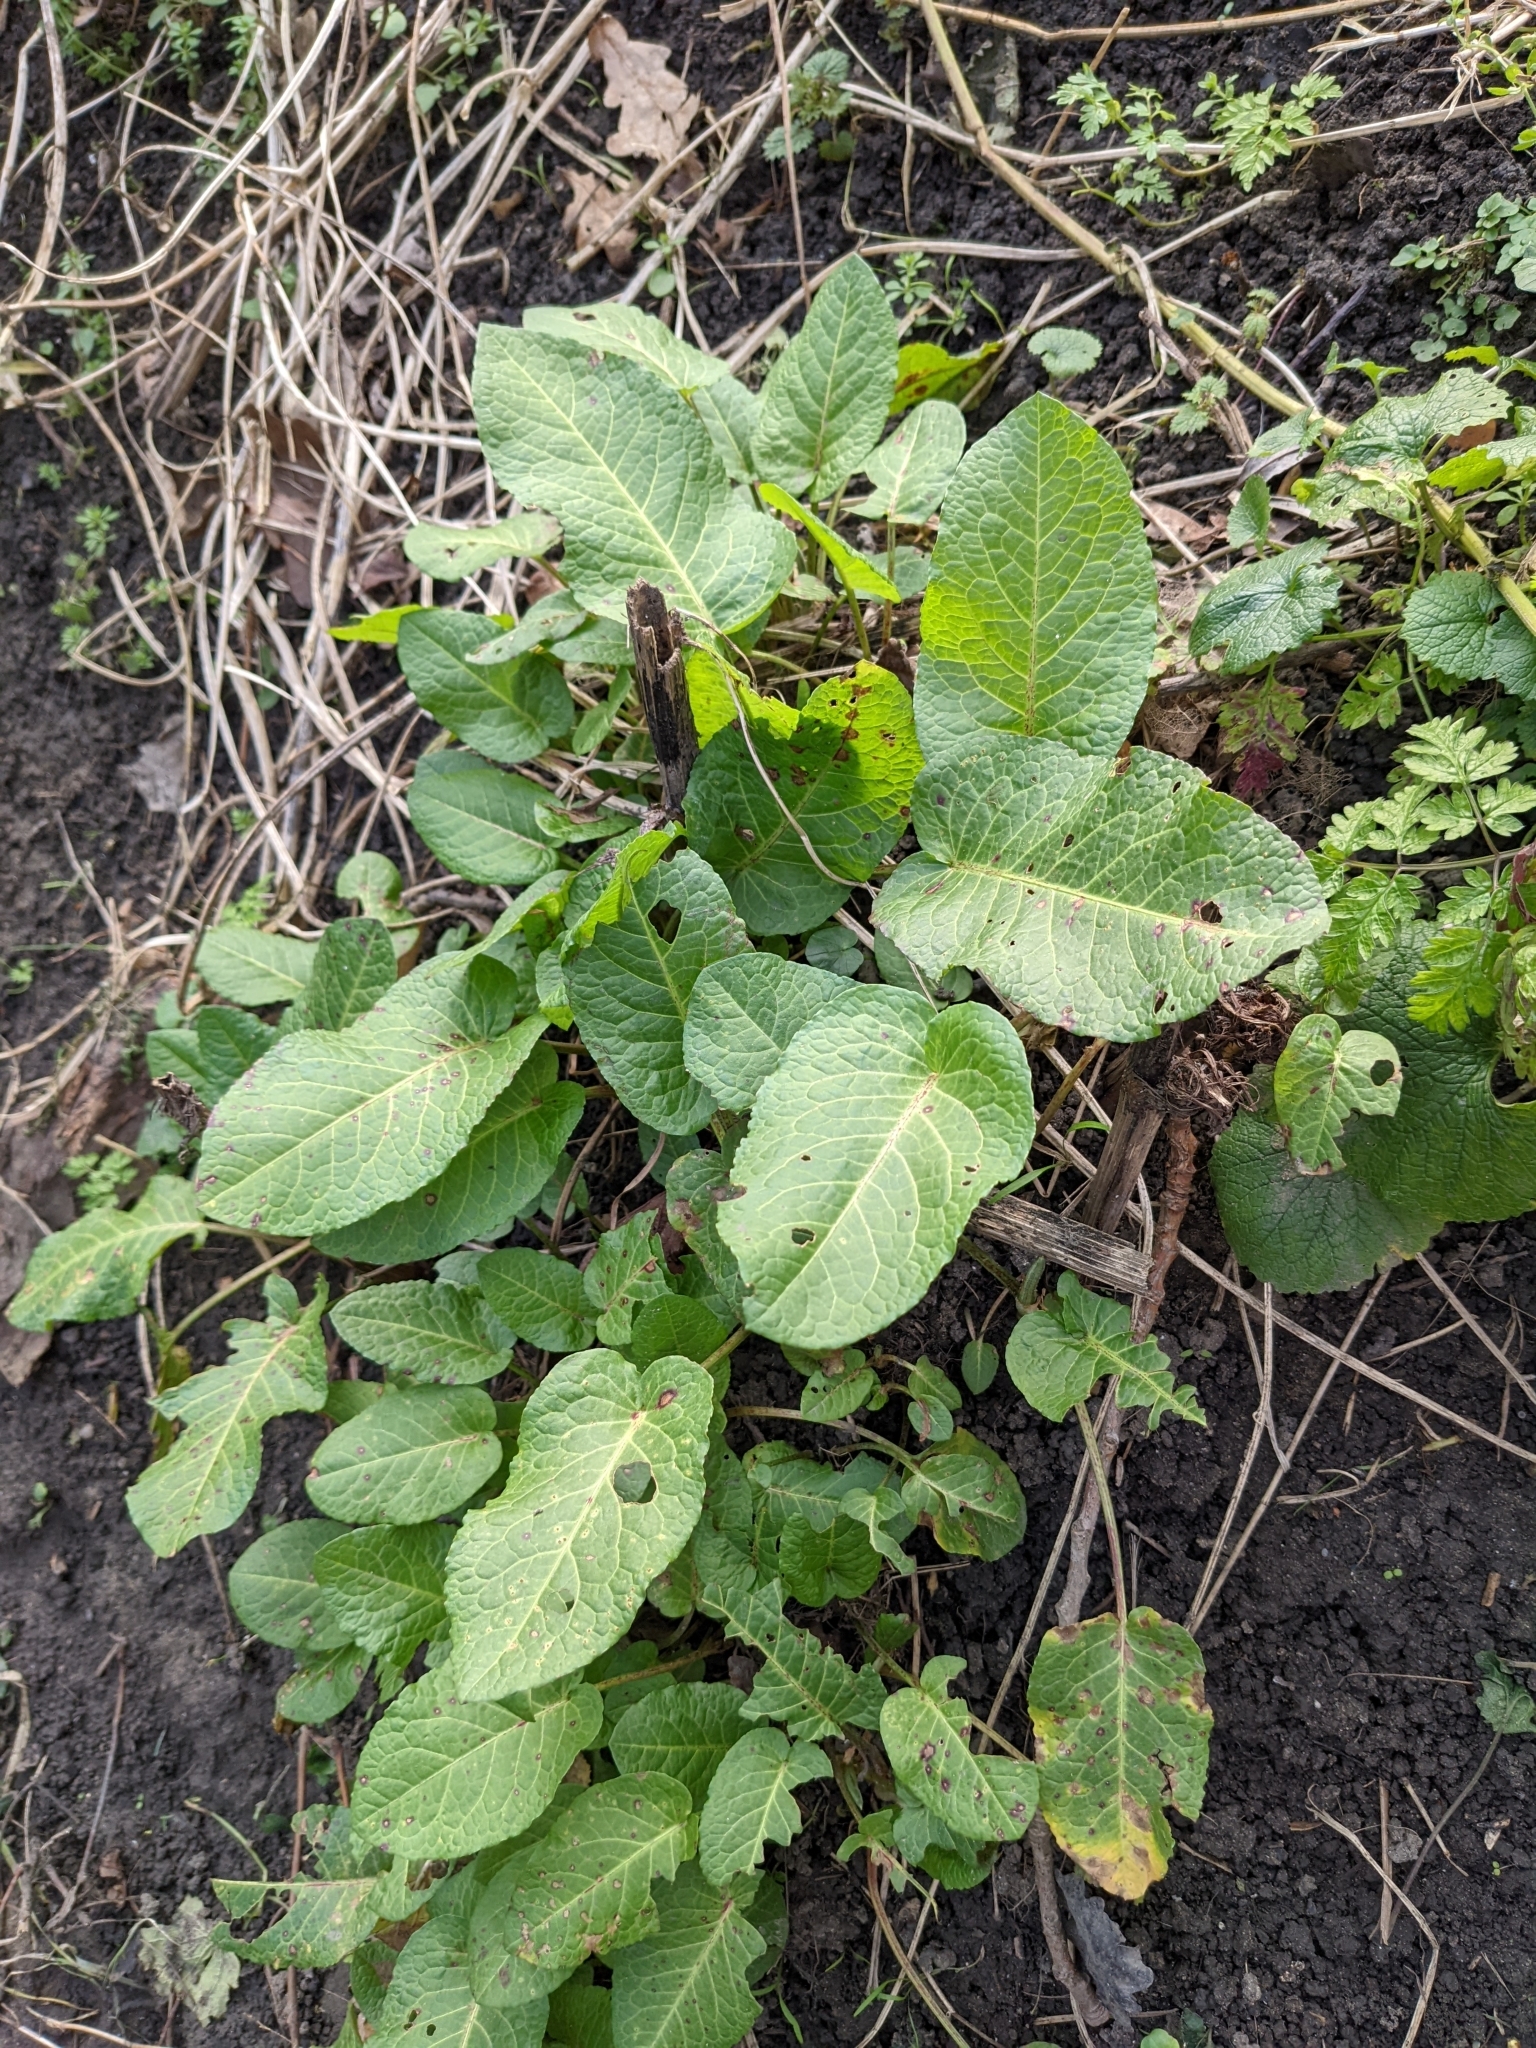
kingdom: Plantae
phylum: Tracheophyta
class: Magnoliopsida
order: Caryophyllales
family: Polygonaceae
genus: Rumex
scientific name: Rumex obtusifolius
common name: Bitter dock
